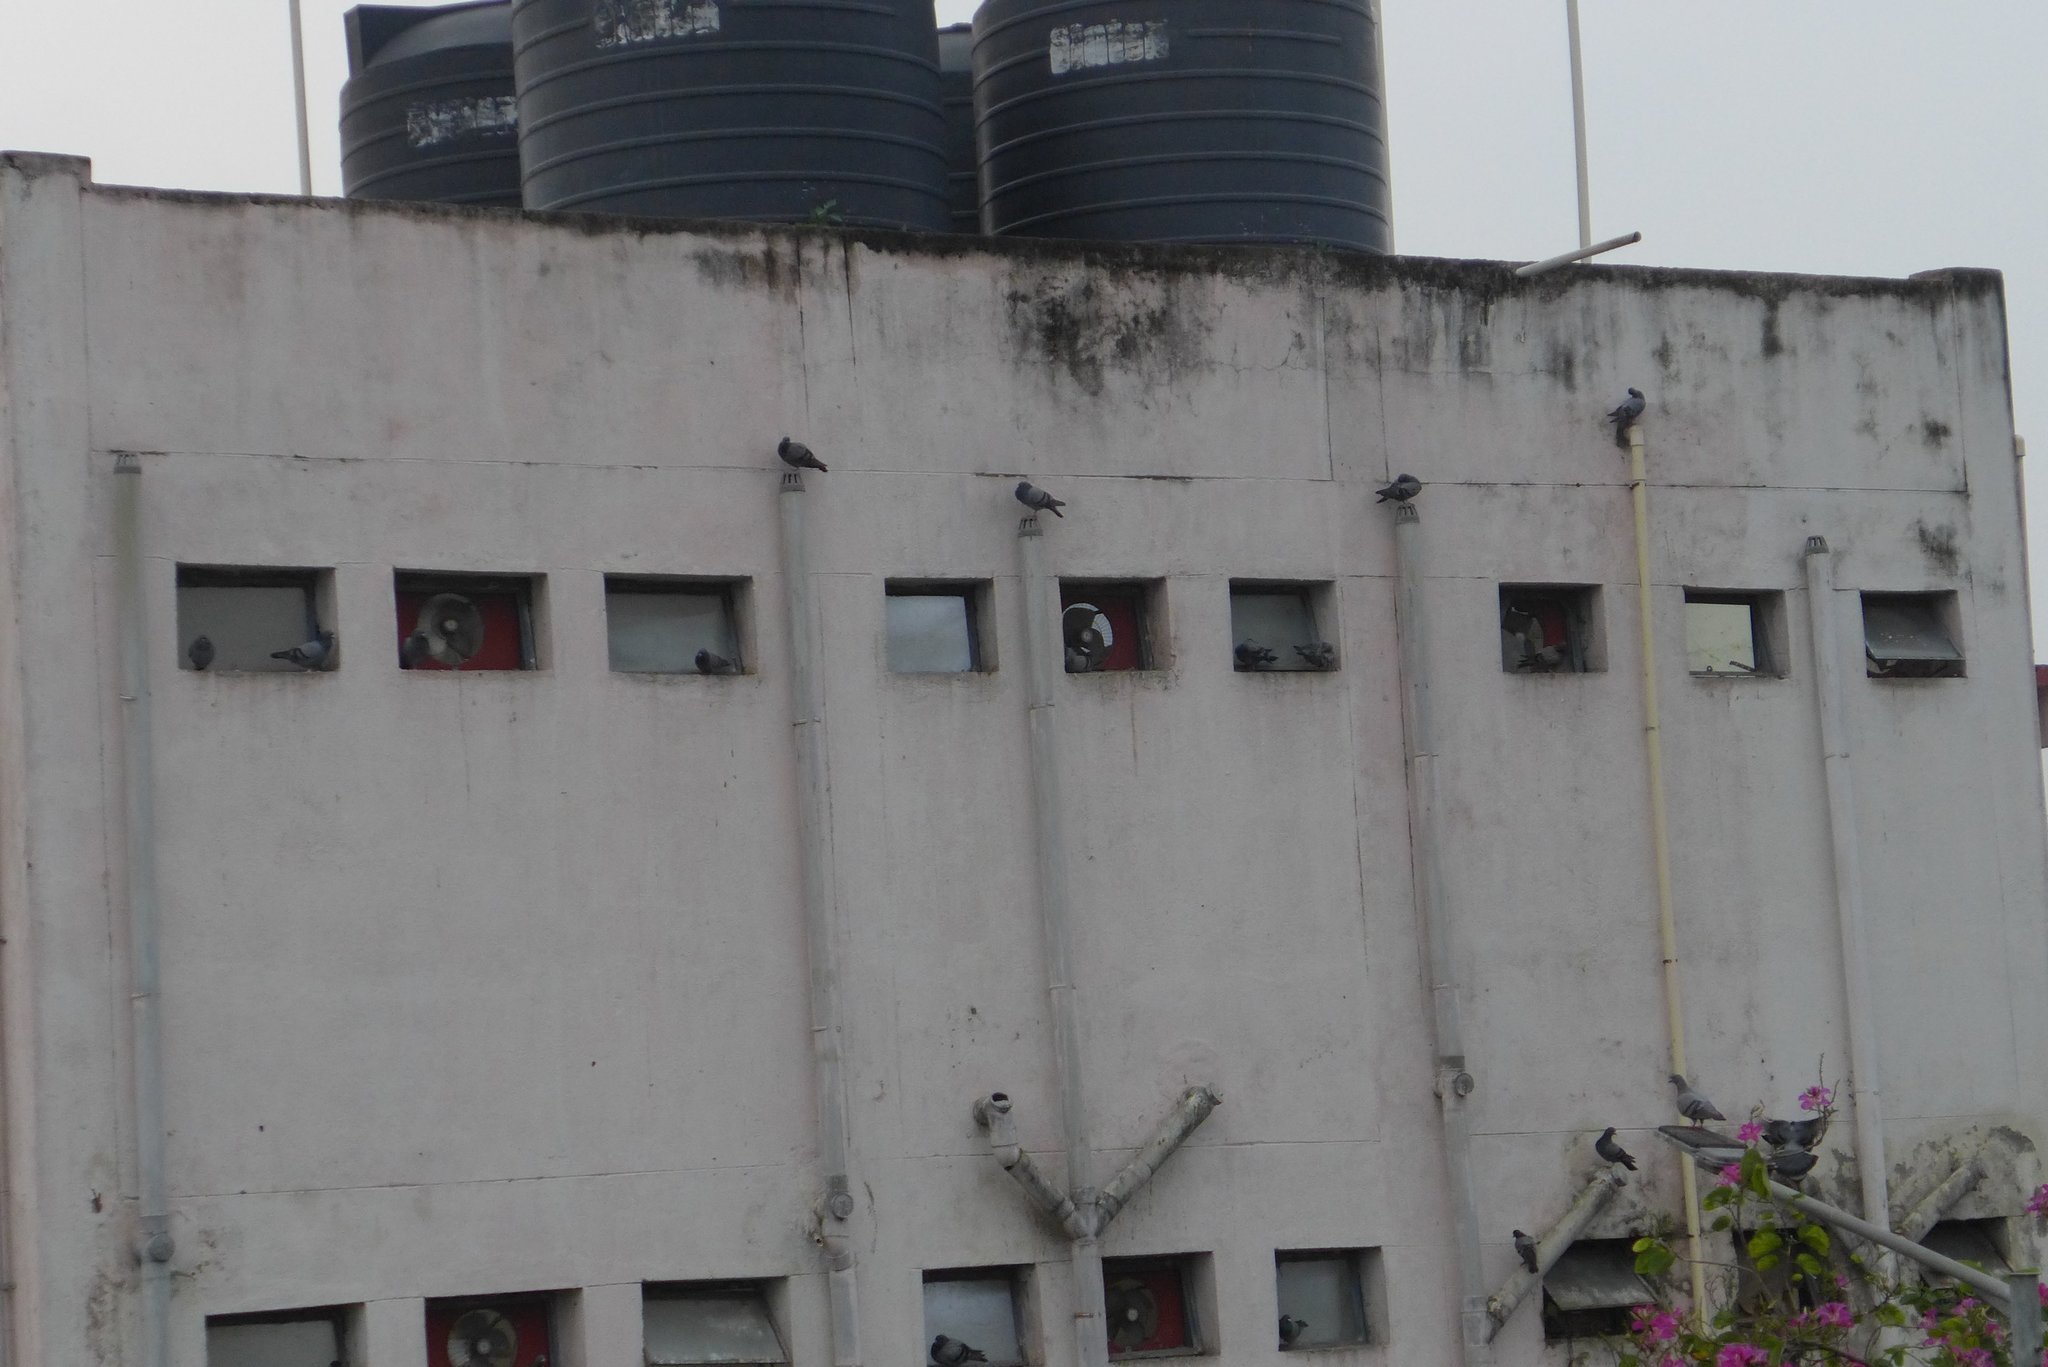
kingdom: Animalia
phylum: Chordata
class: Aves
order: Columbiformes
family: Columbidae
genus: Columba
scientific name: Columba livia
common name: Rock pigeon
